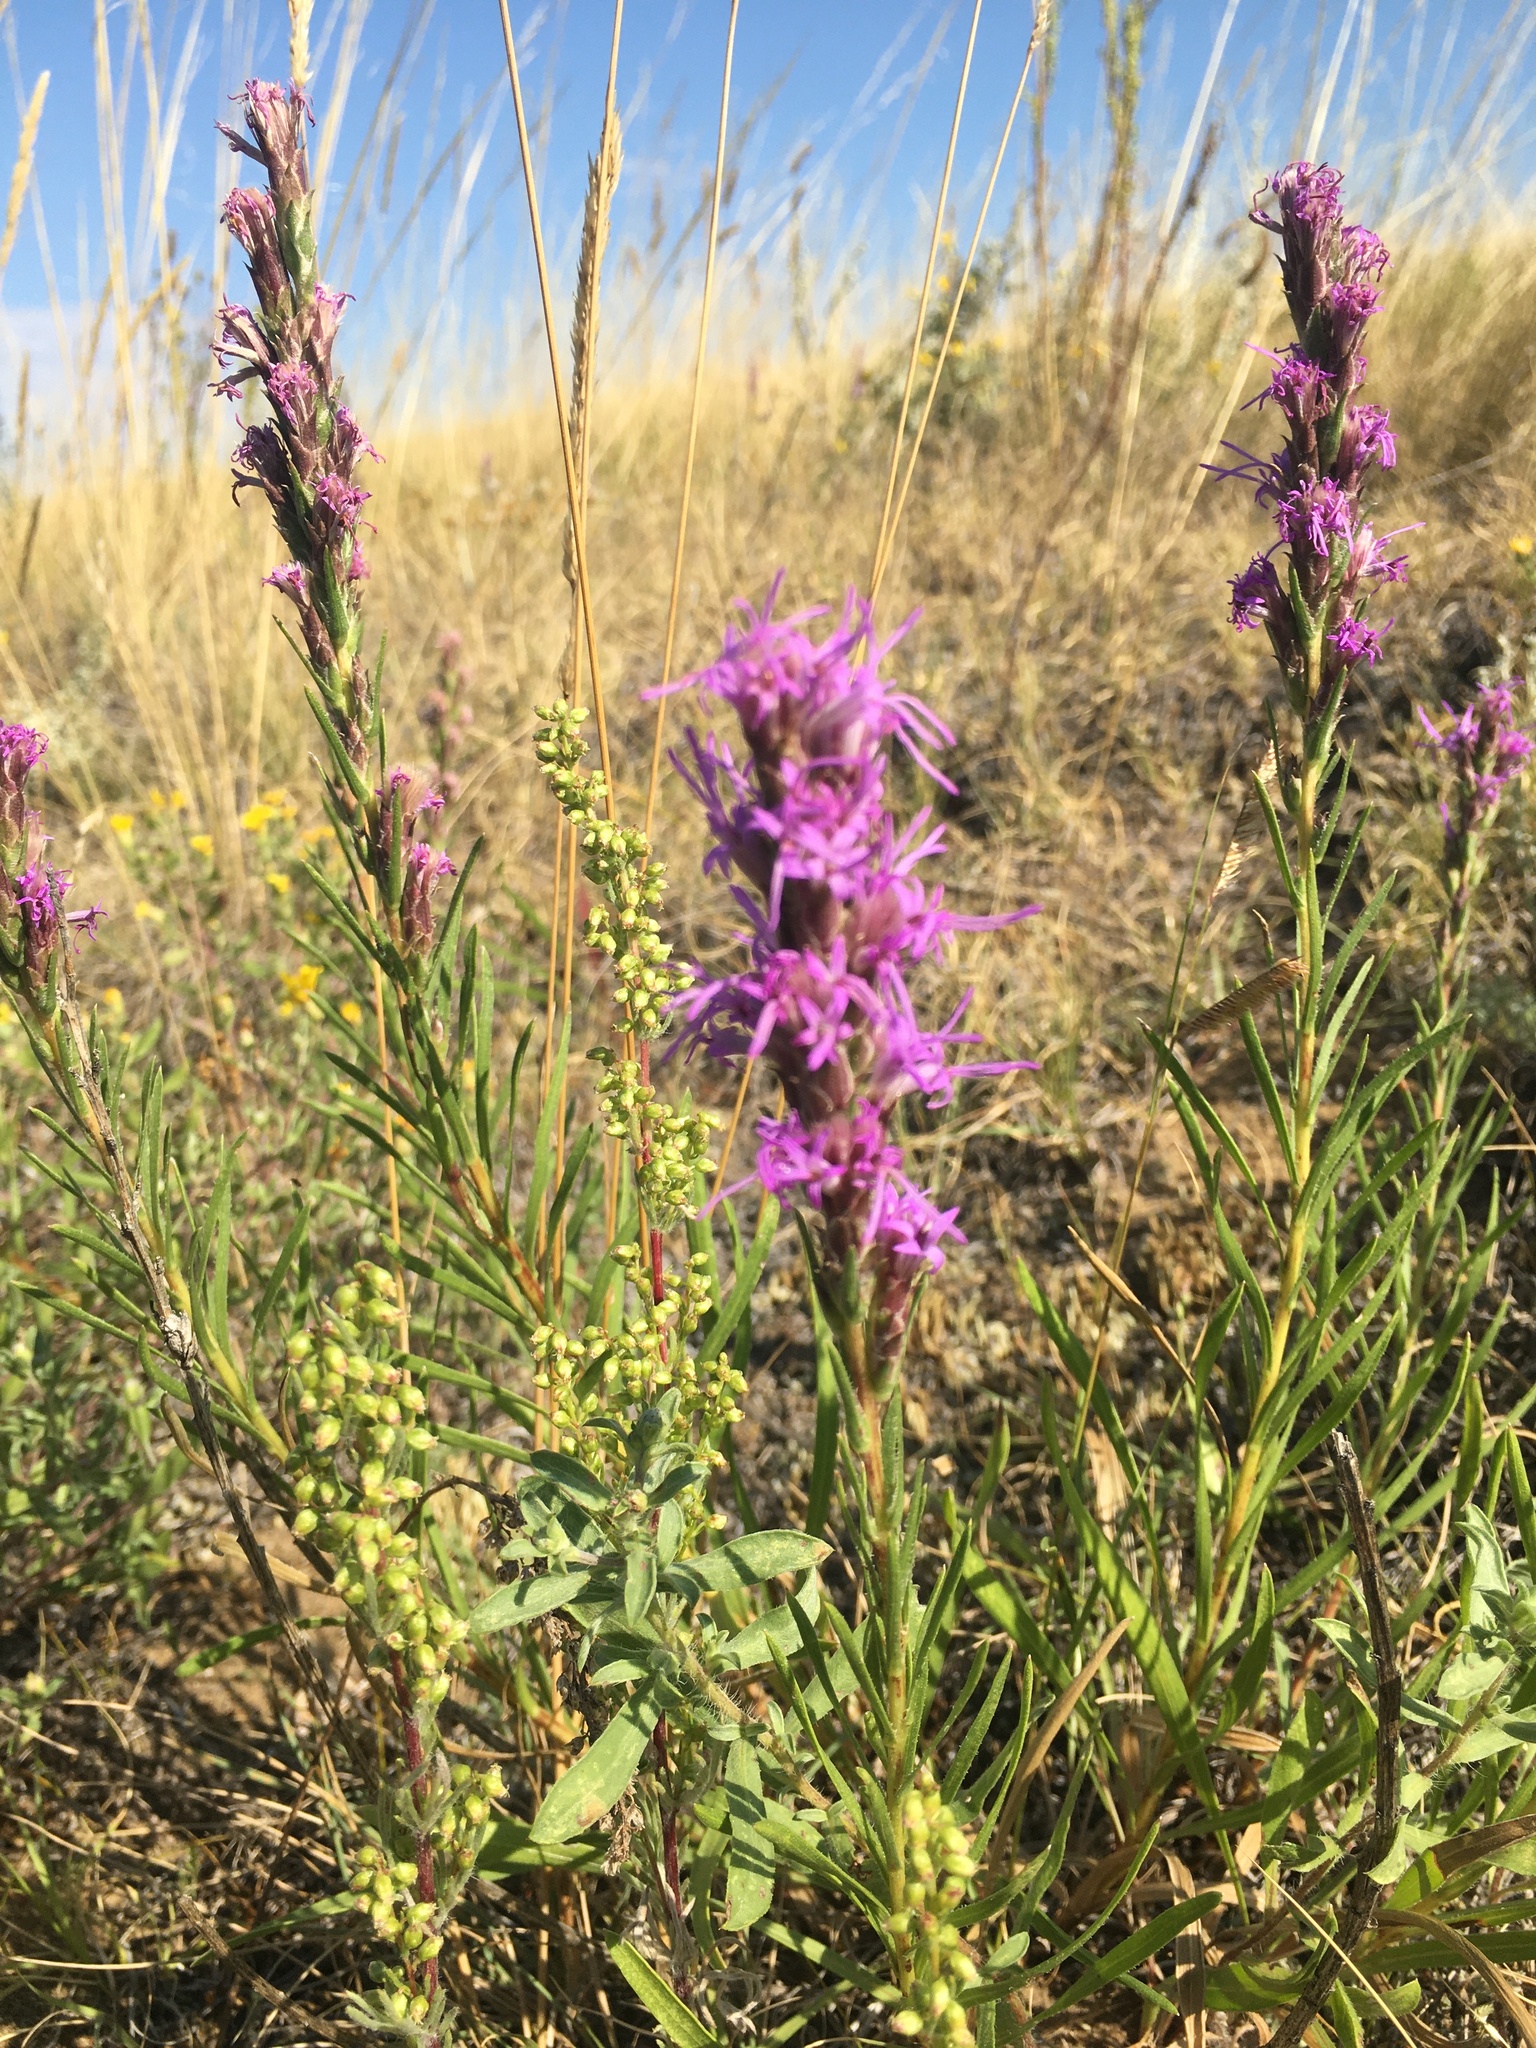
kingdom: Plantae
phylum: Tracheophyta
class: Magnoliopsida
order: Asterales
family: Asteraceae
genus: Liatris
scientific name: Liatris punctata
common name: Dotted gayfeather
